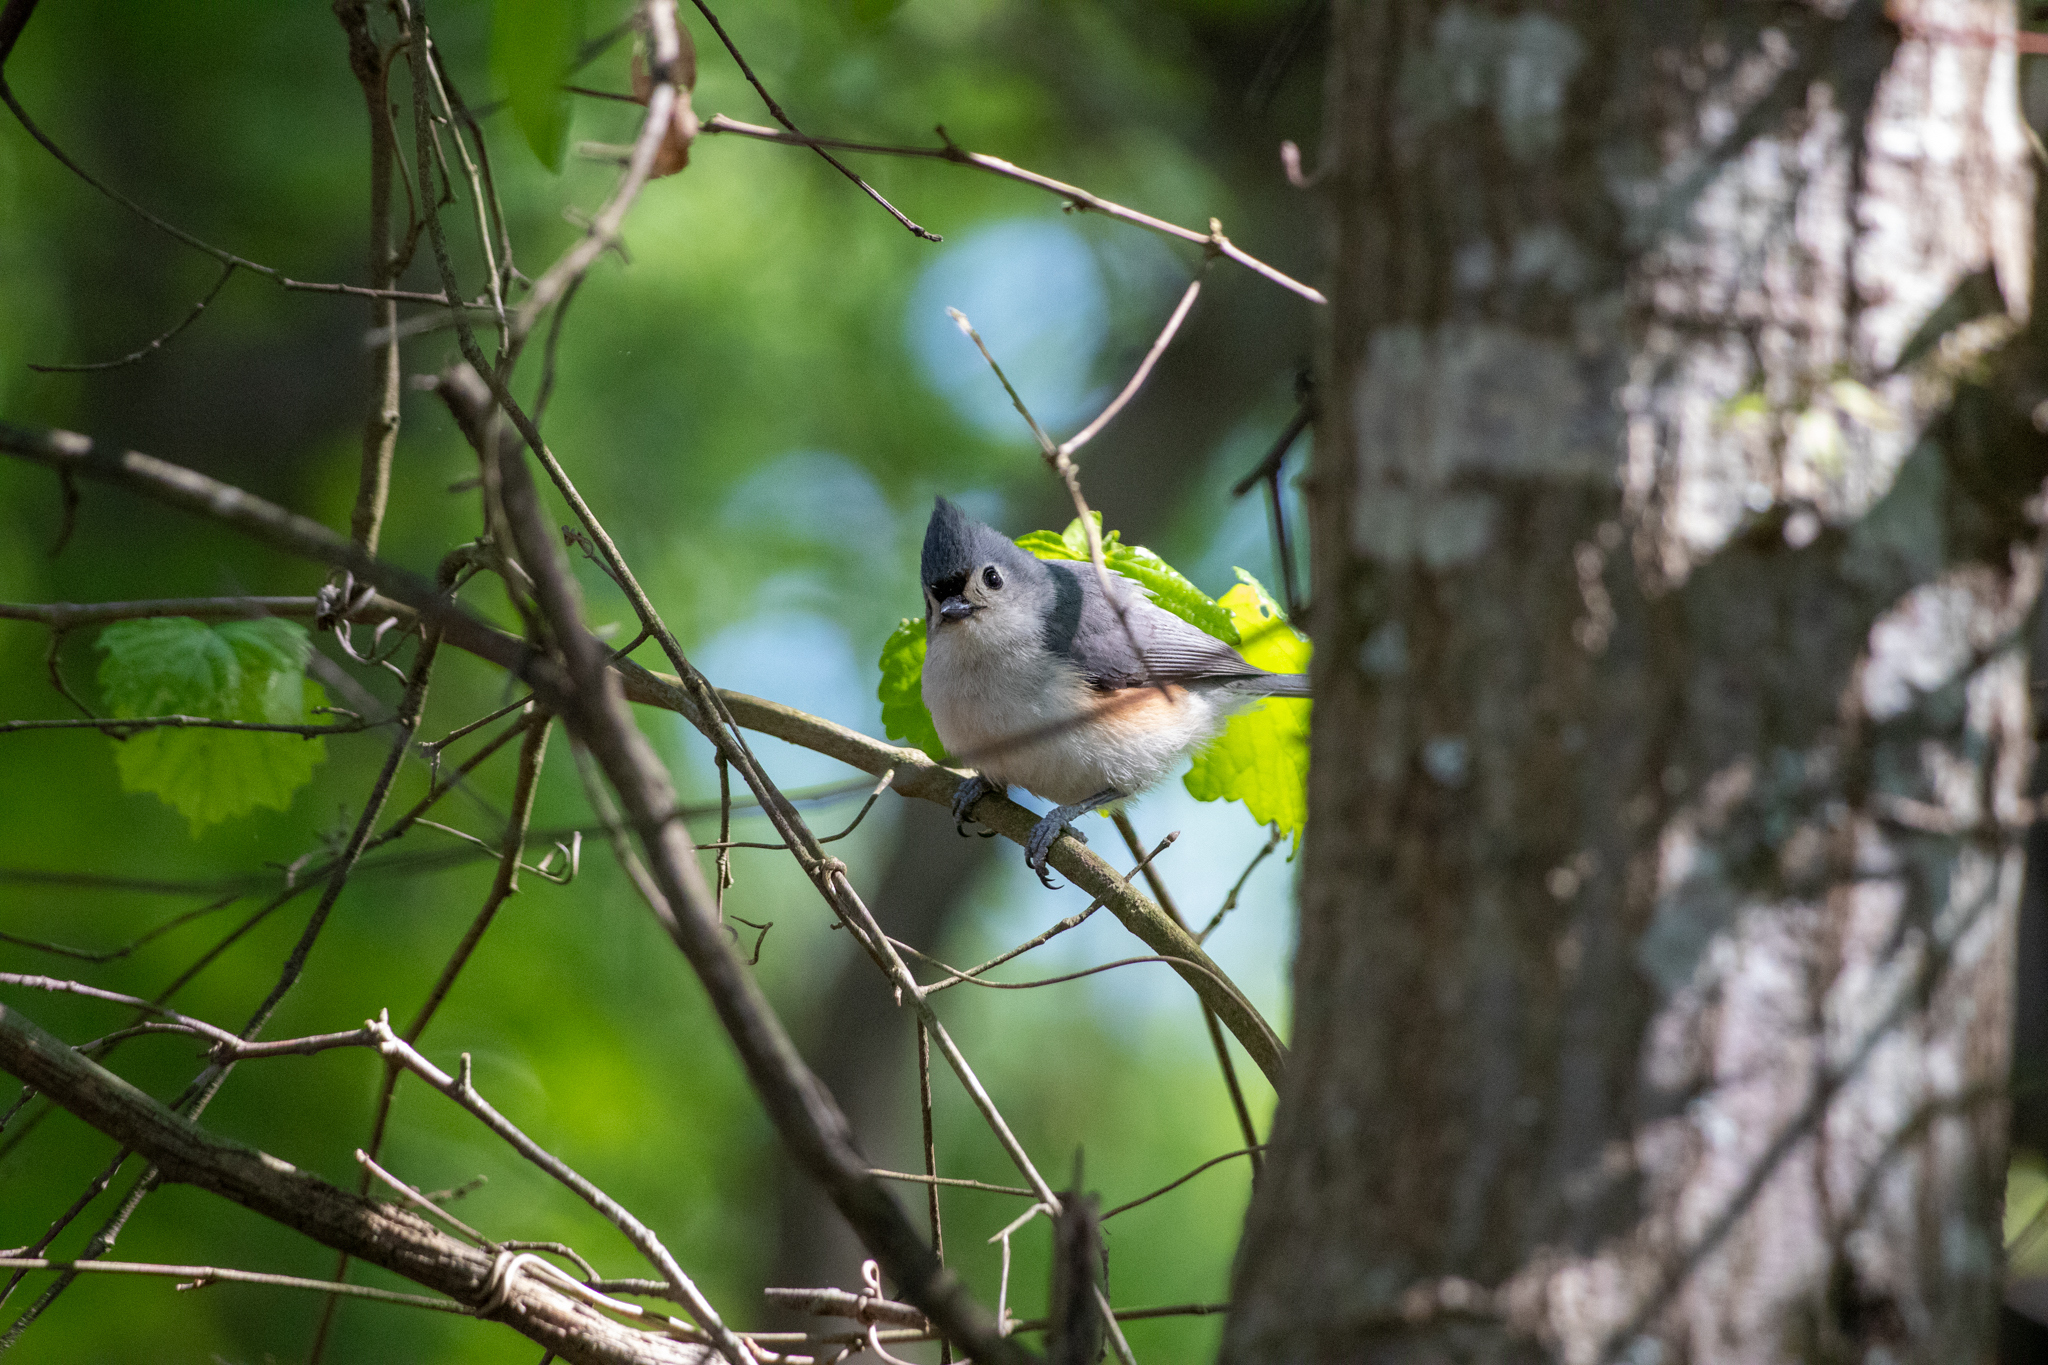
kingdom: Animalia
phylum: Chordata
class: Aves
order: Passeriformes
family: Paridae
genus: Baeolophus
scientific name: Baeolophus bicolor
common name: Tufted titmouse
